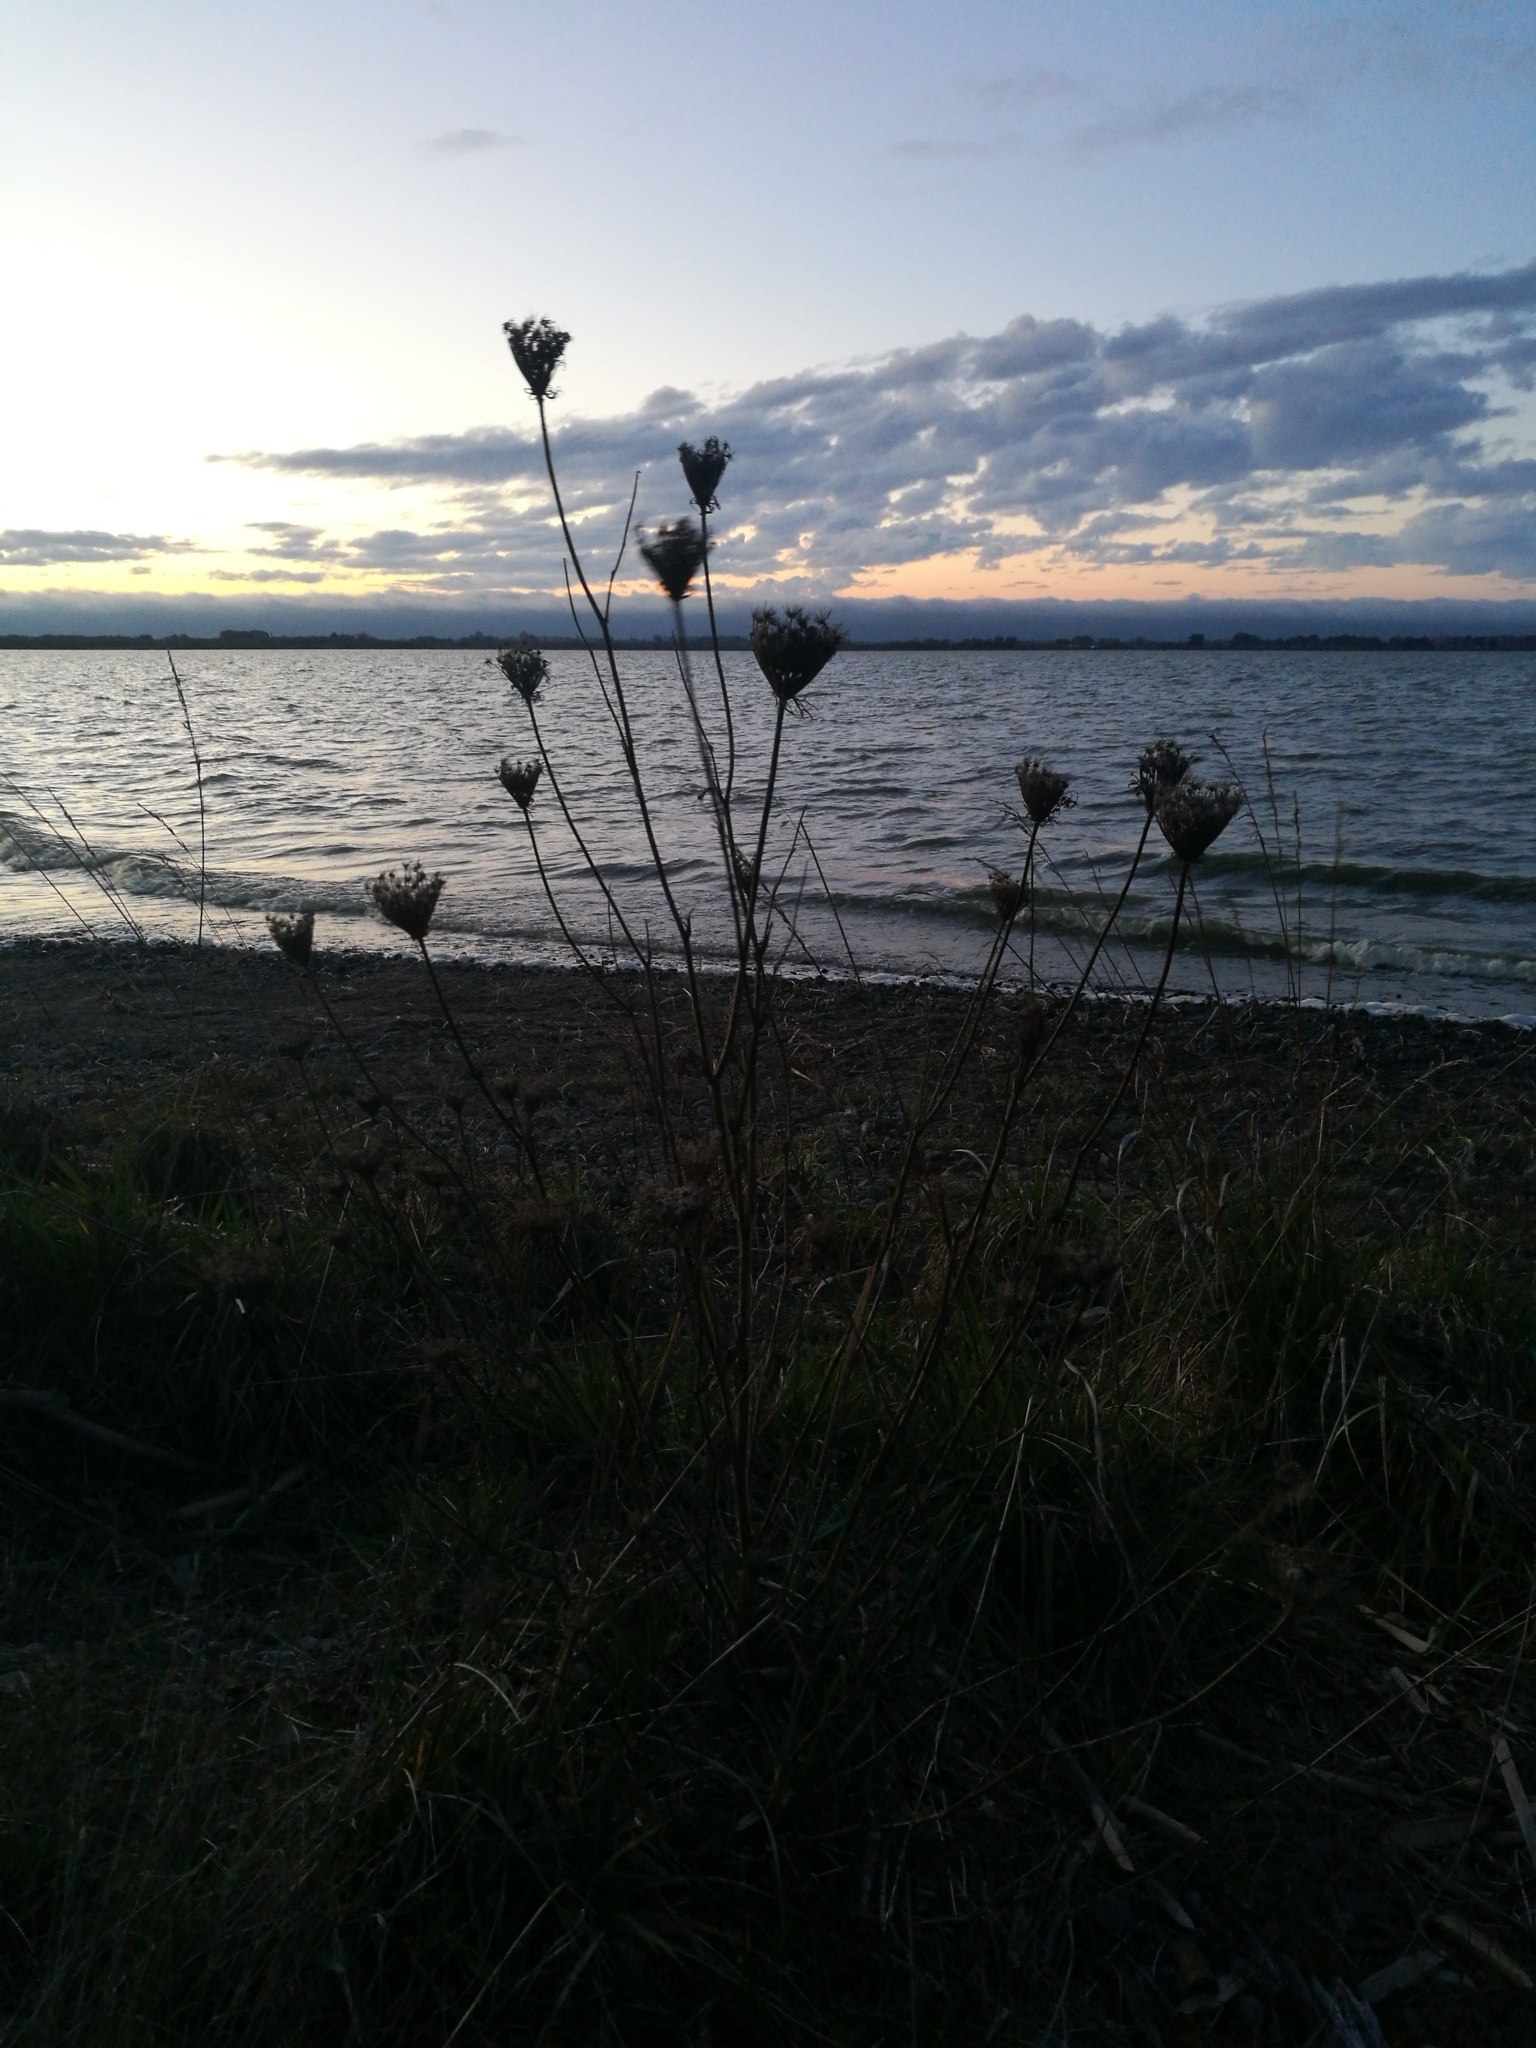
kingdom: Plantae
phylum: Tracheophyta
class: Magnoliopsida
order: Apiales
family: Apiaceae
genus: Daucus
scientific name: Daucus carota
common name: Wild carrot
